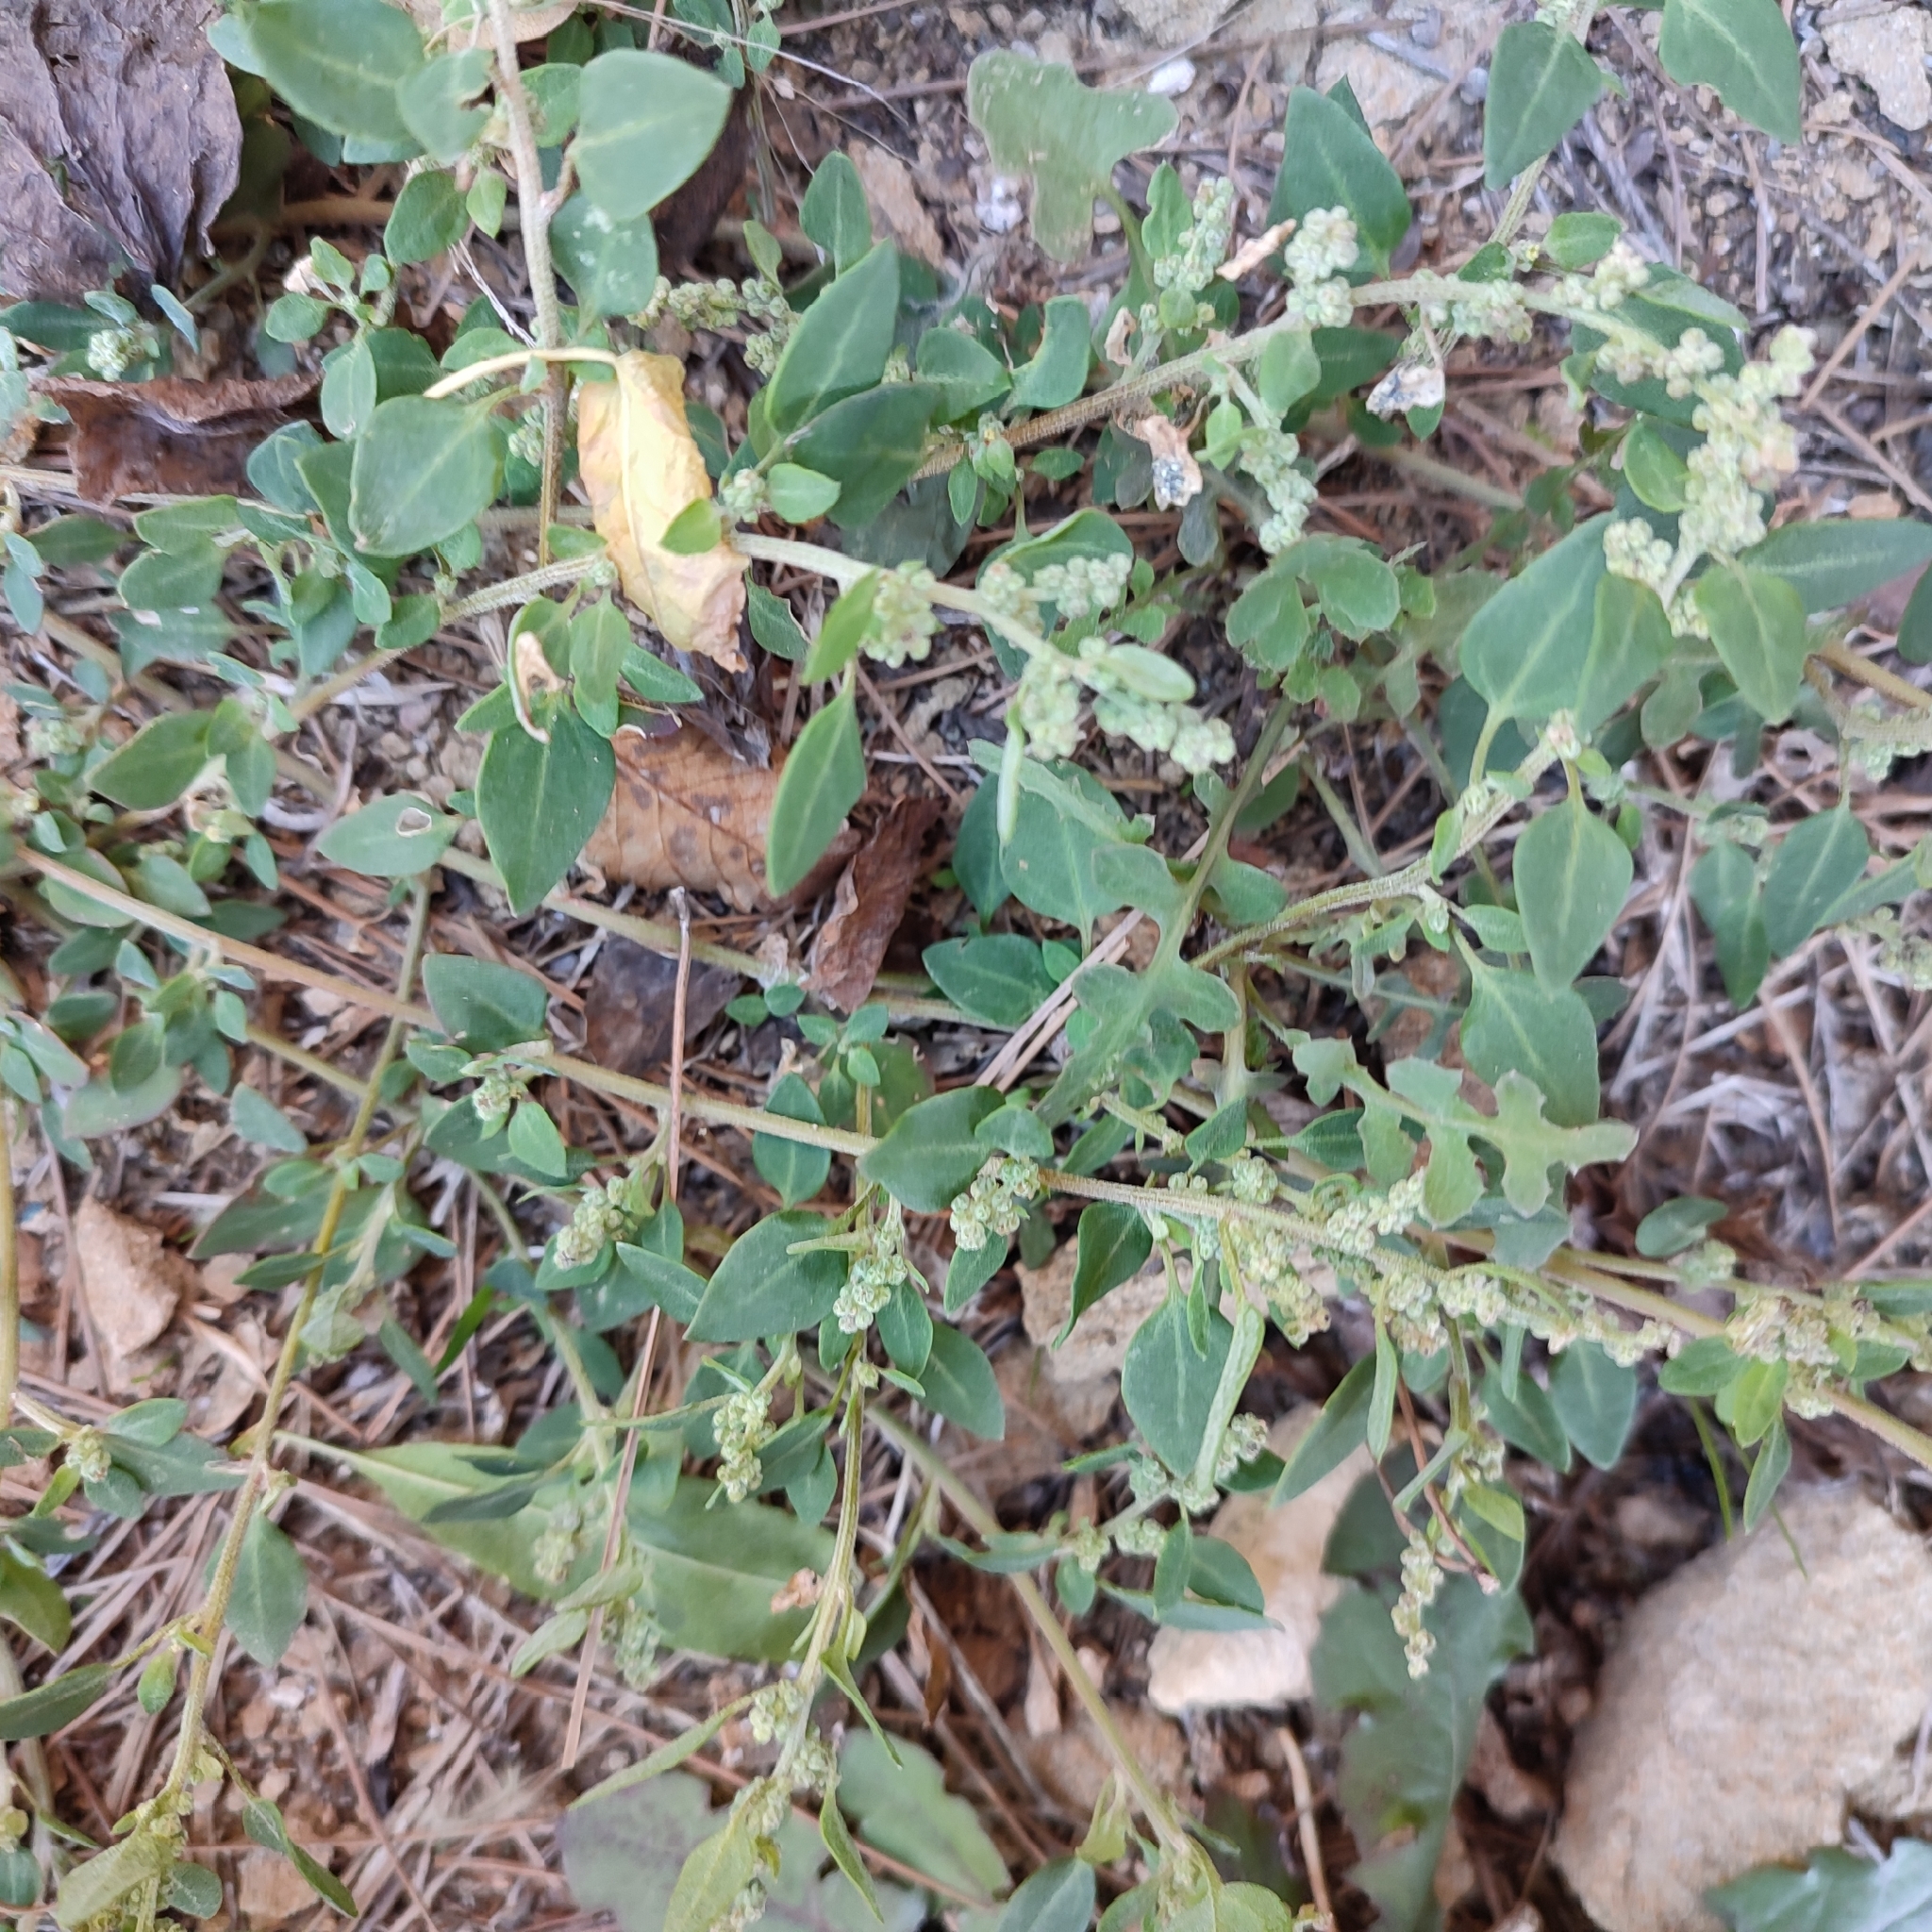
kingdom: Plantae
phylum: Tracheophyta
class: Magnoliopsida
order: Caryophyllales
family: Amaranthaceae
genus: Chenopodium
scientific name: Chenopodium vulvaria
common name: Stinking goosefoot
